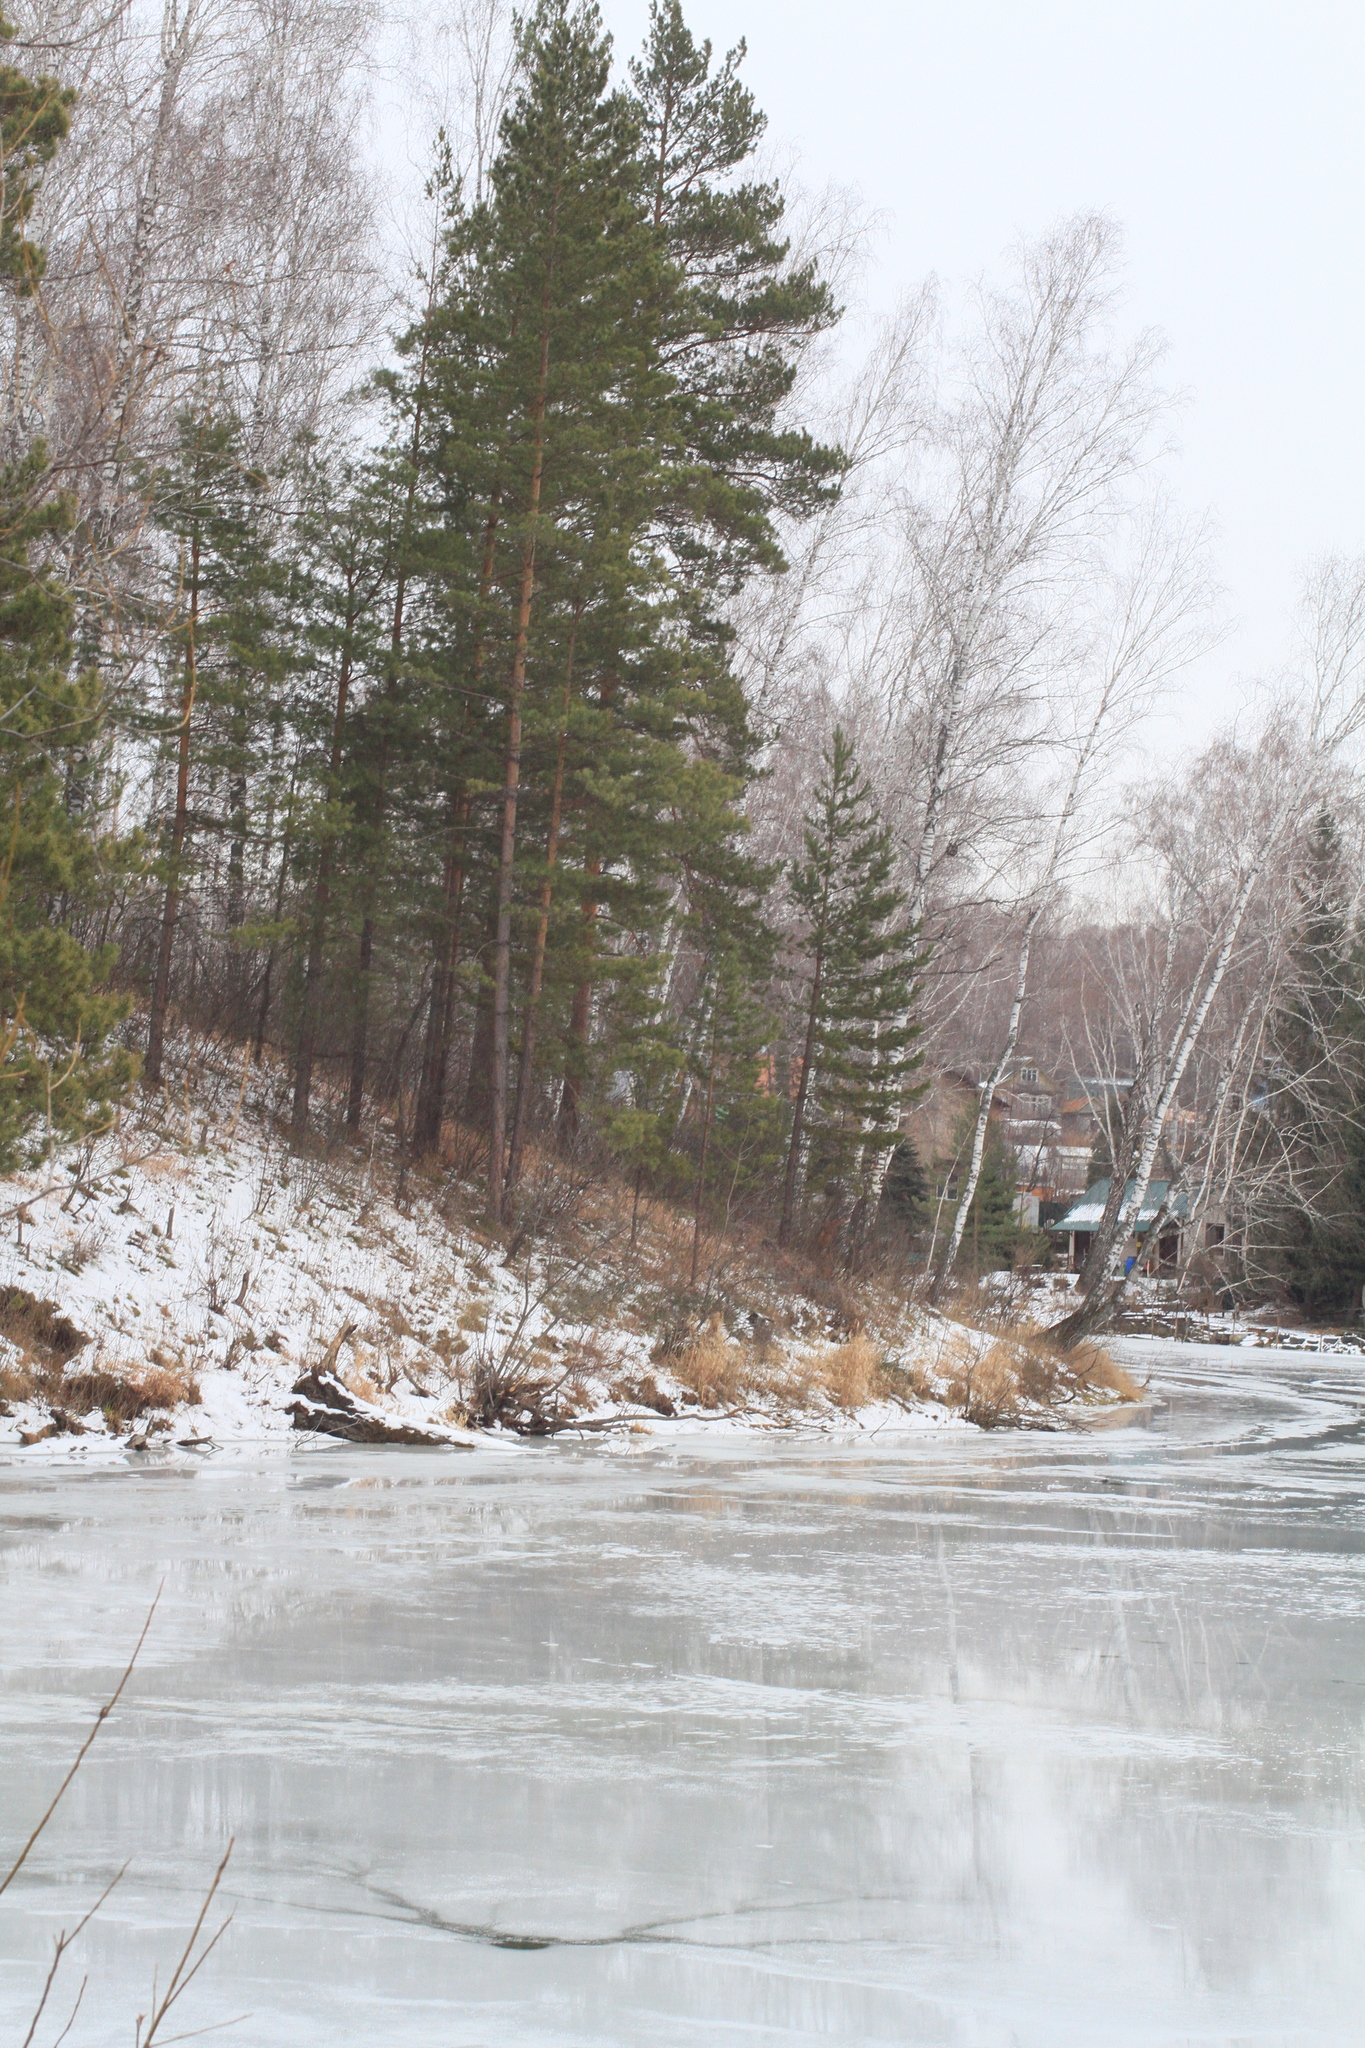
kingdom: Plantae
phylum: Tracheophyta
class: Pinopsida
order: Pinales
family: Pinaceae
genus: Pinus
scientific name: Pinus sylvestris
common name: Scots pine
